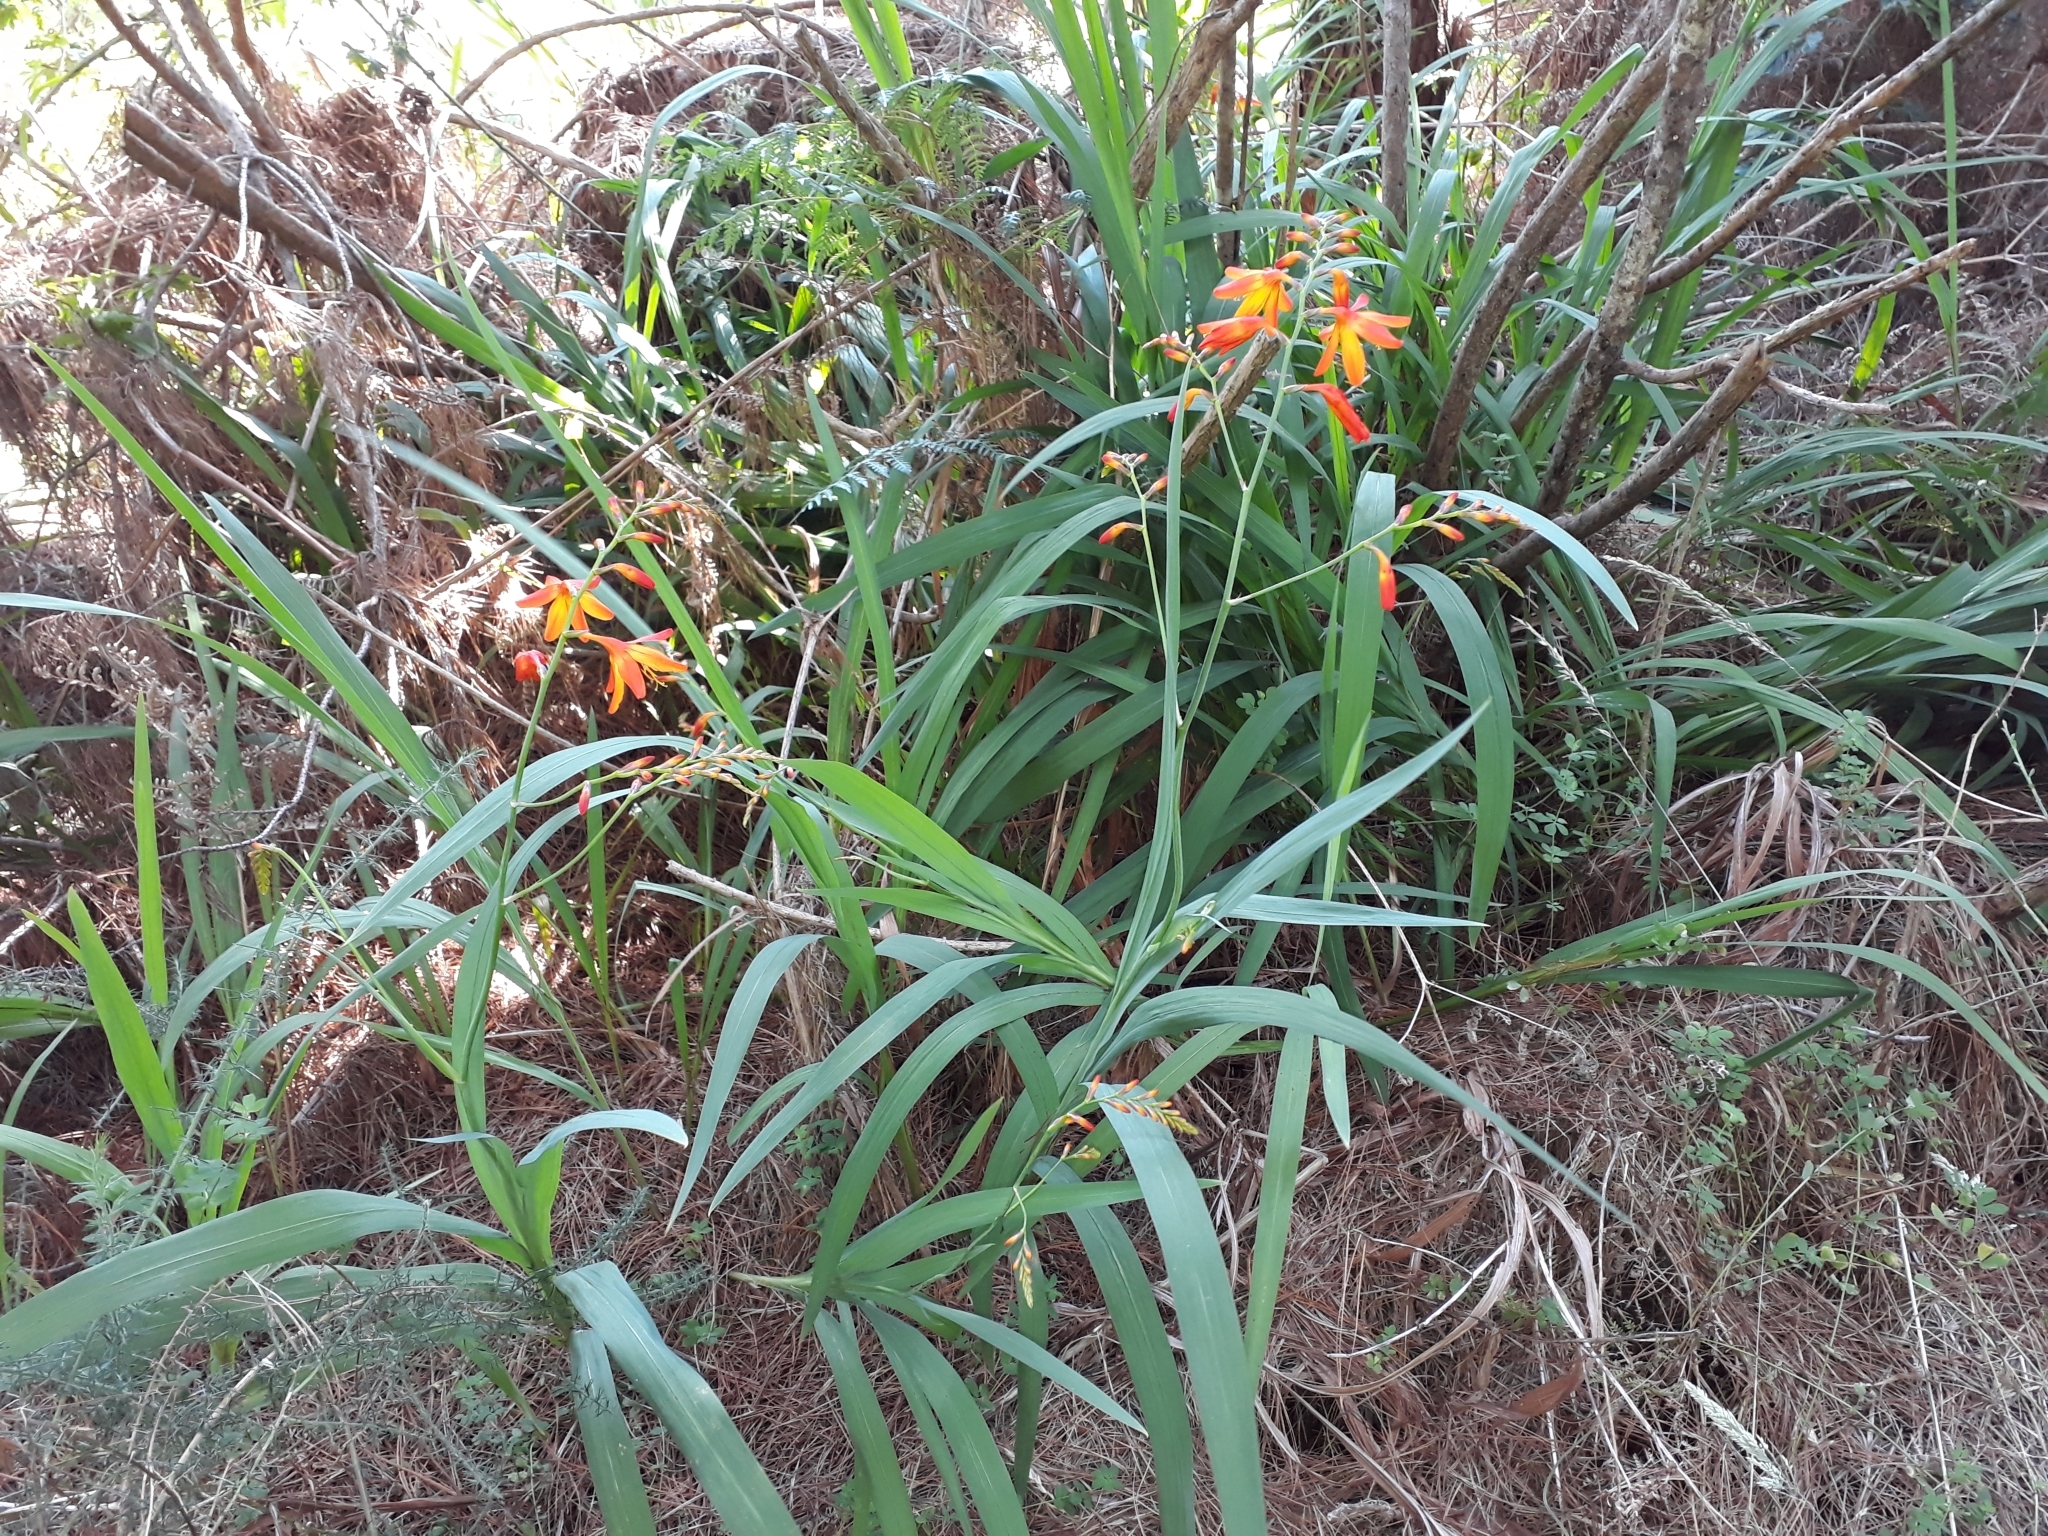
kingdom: Plantae
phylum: Tracheophyta
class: Liliopsida
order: Asparagales
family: Iridaceae
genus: Crocosmia
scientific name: Crocosmia crocosmiiflora
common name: Montbretia
